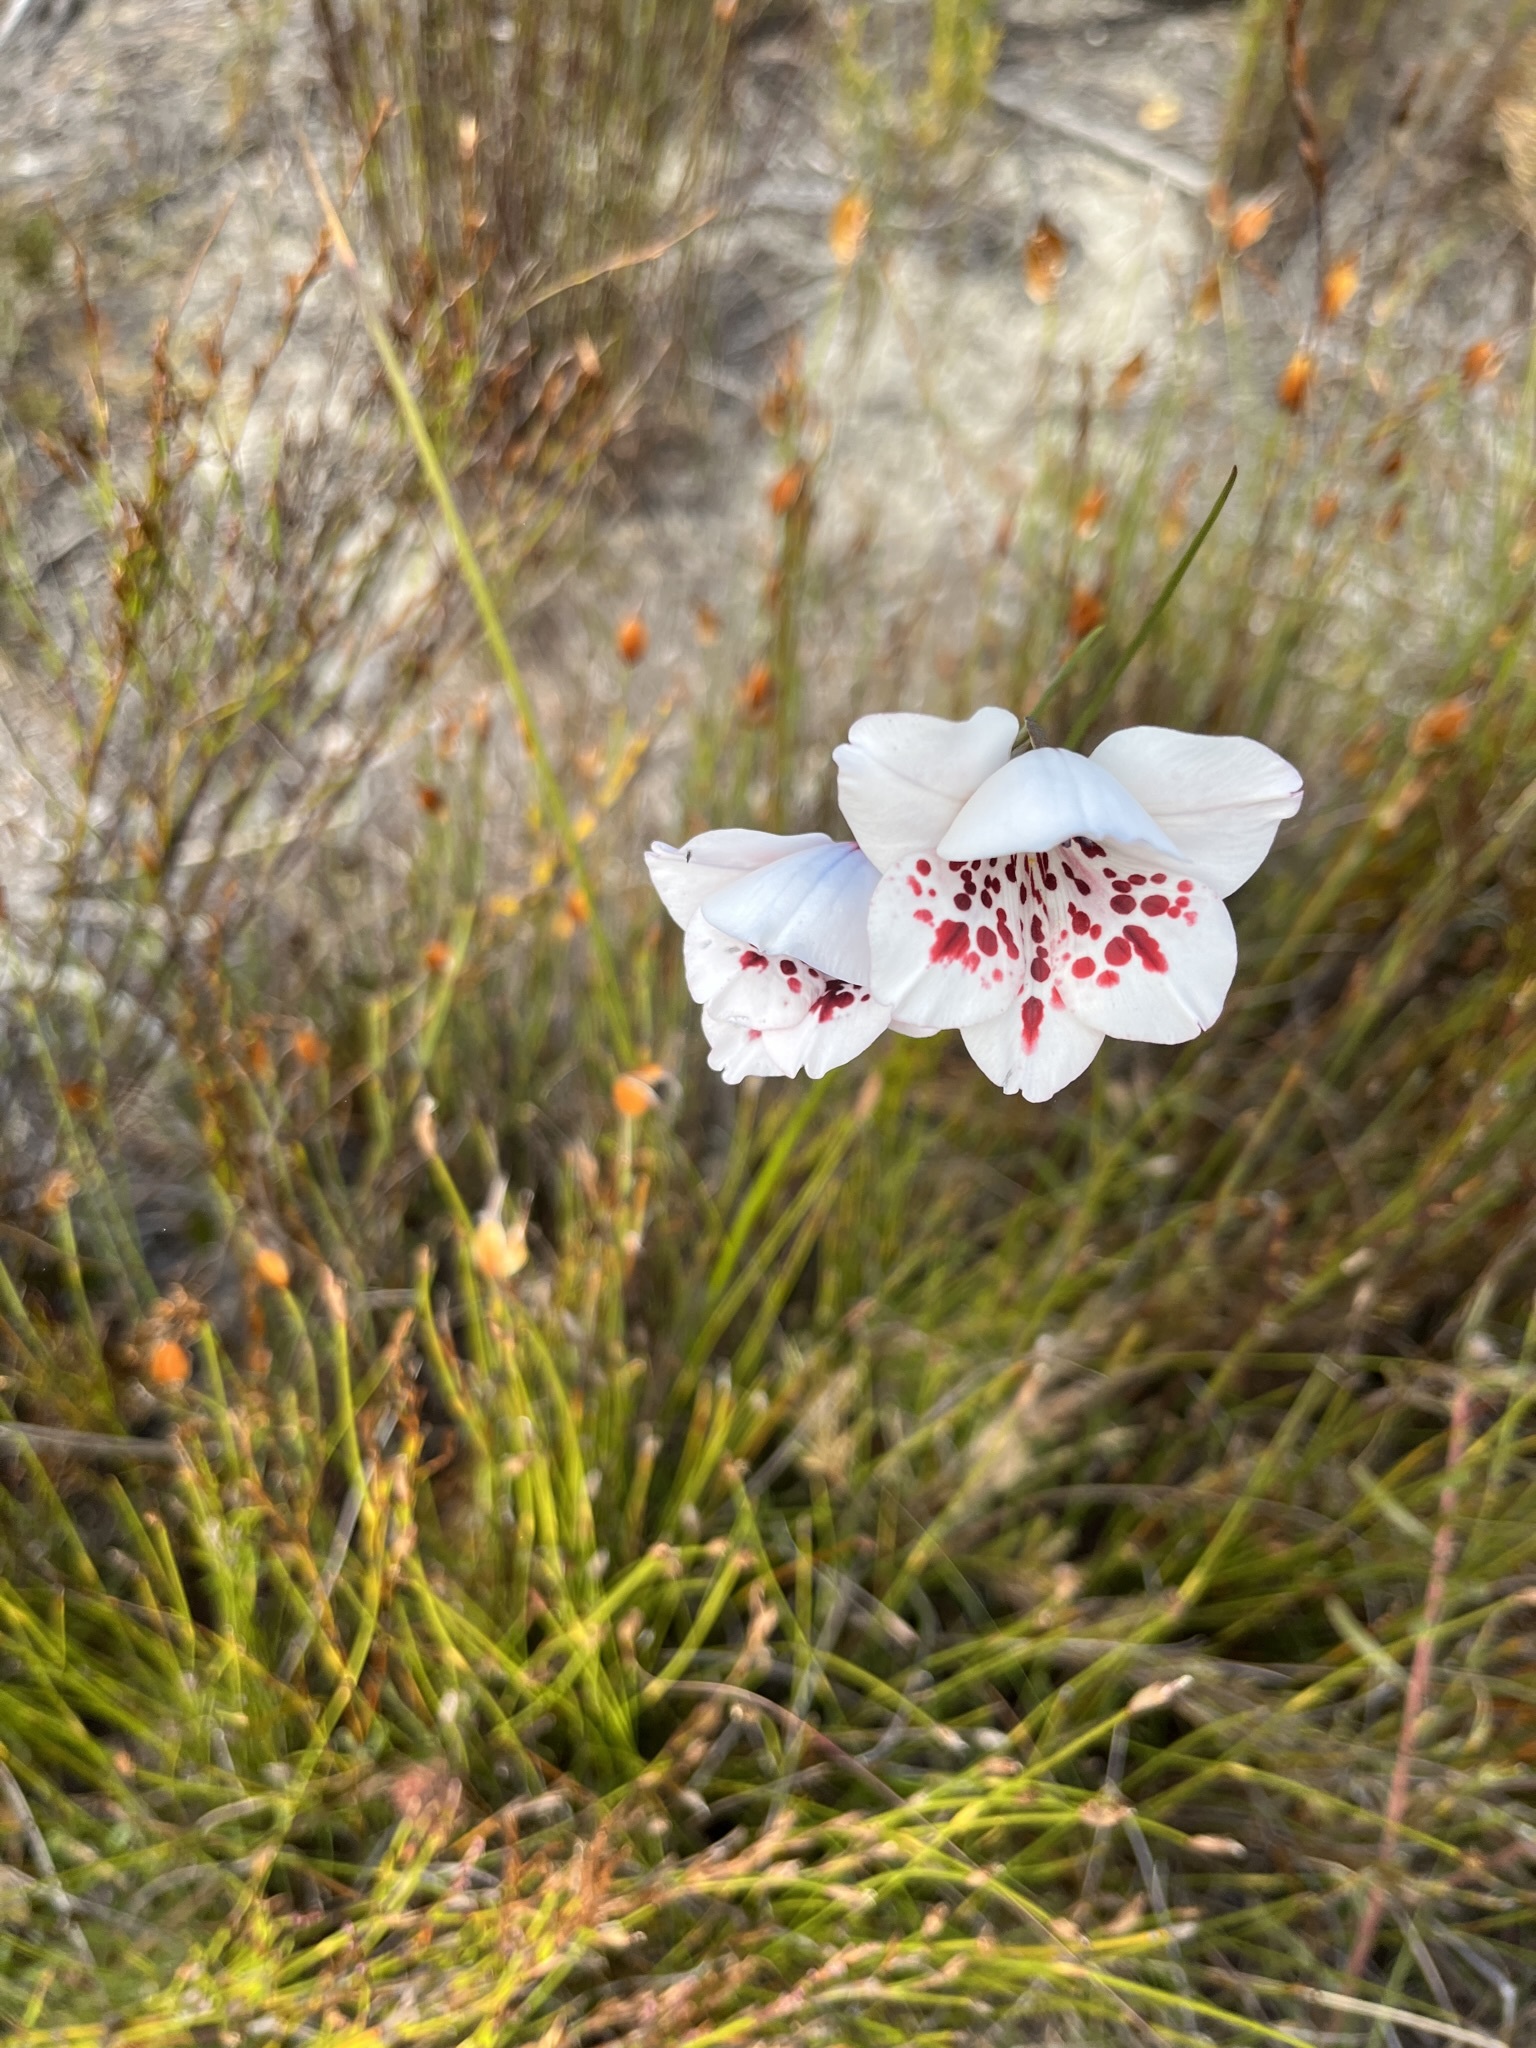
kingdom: Plantae
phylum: Tracheophyta
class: Liliopsida
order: Asparagales
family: Iridaceae
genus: Gladiolus
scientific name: Gladiolus variegatus
